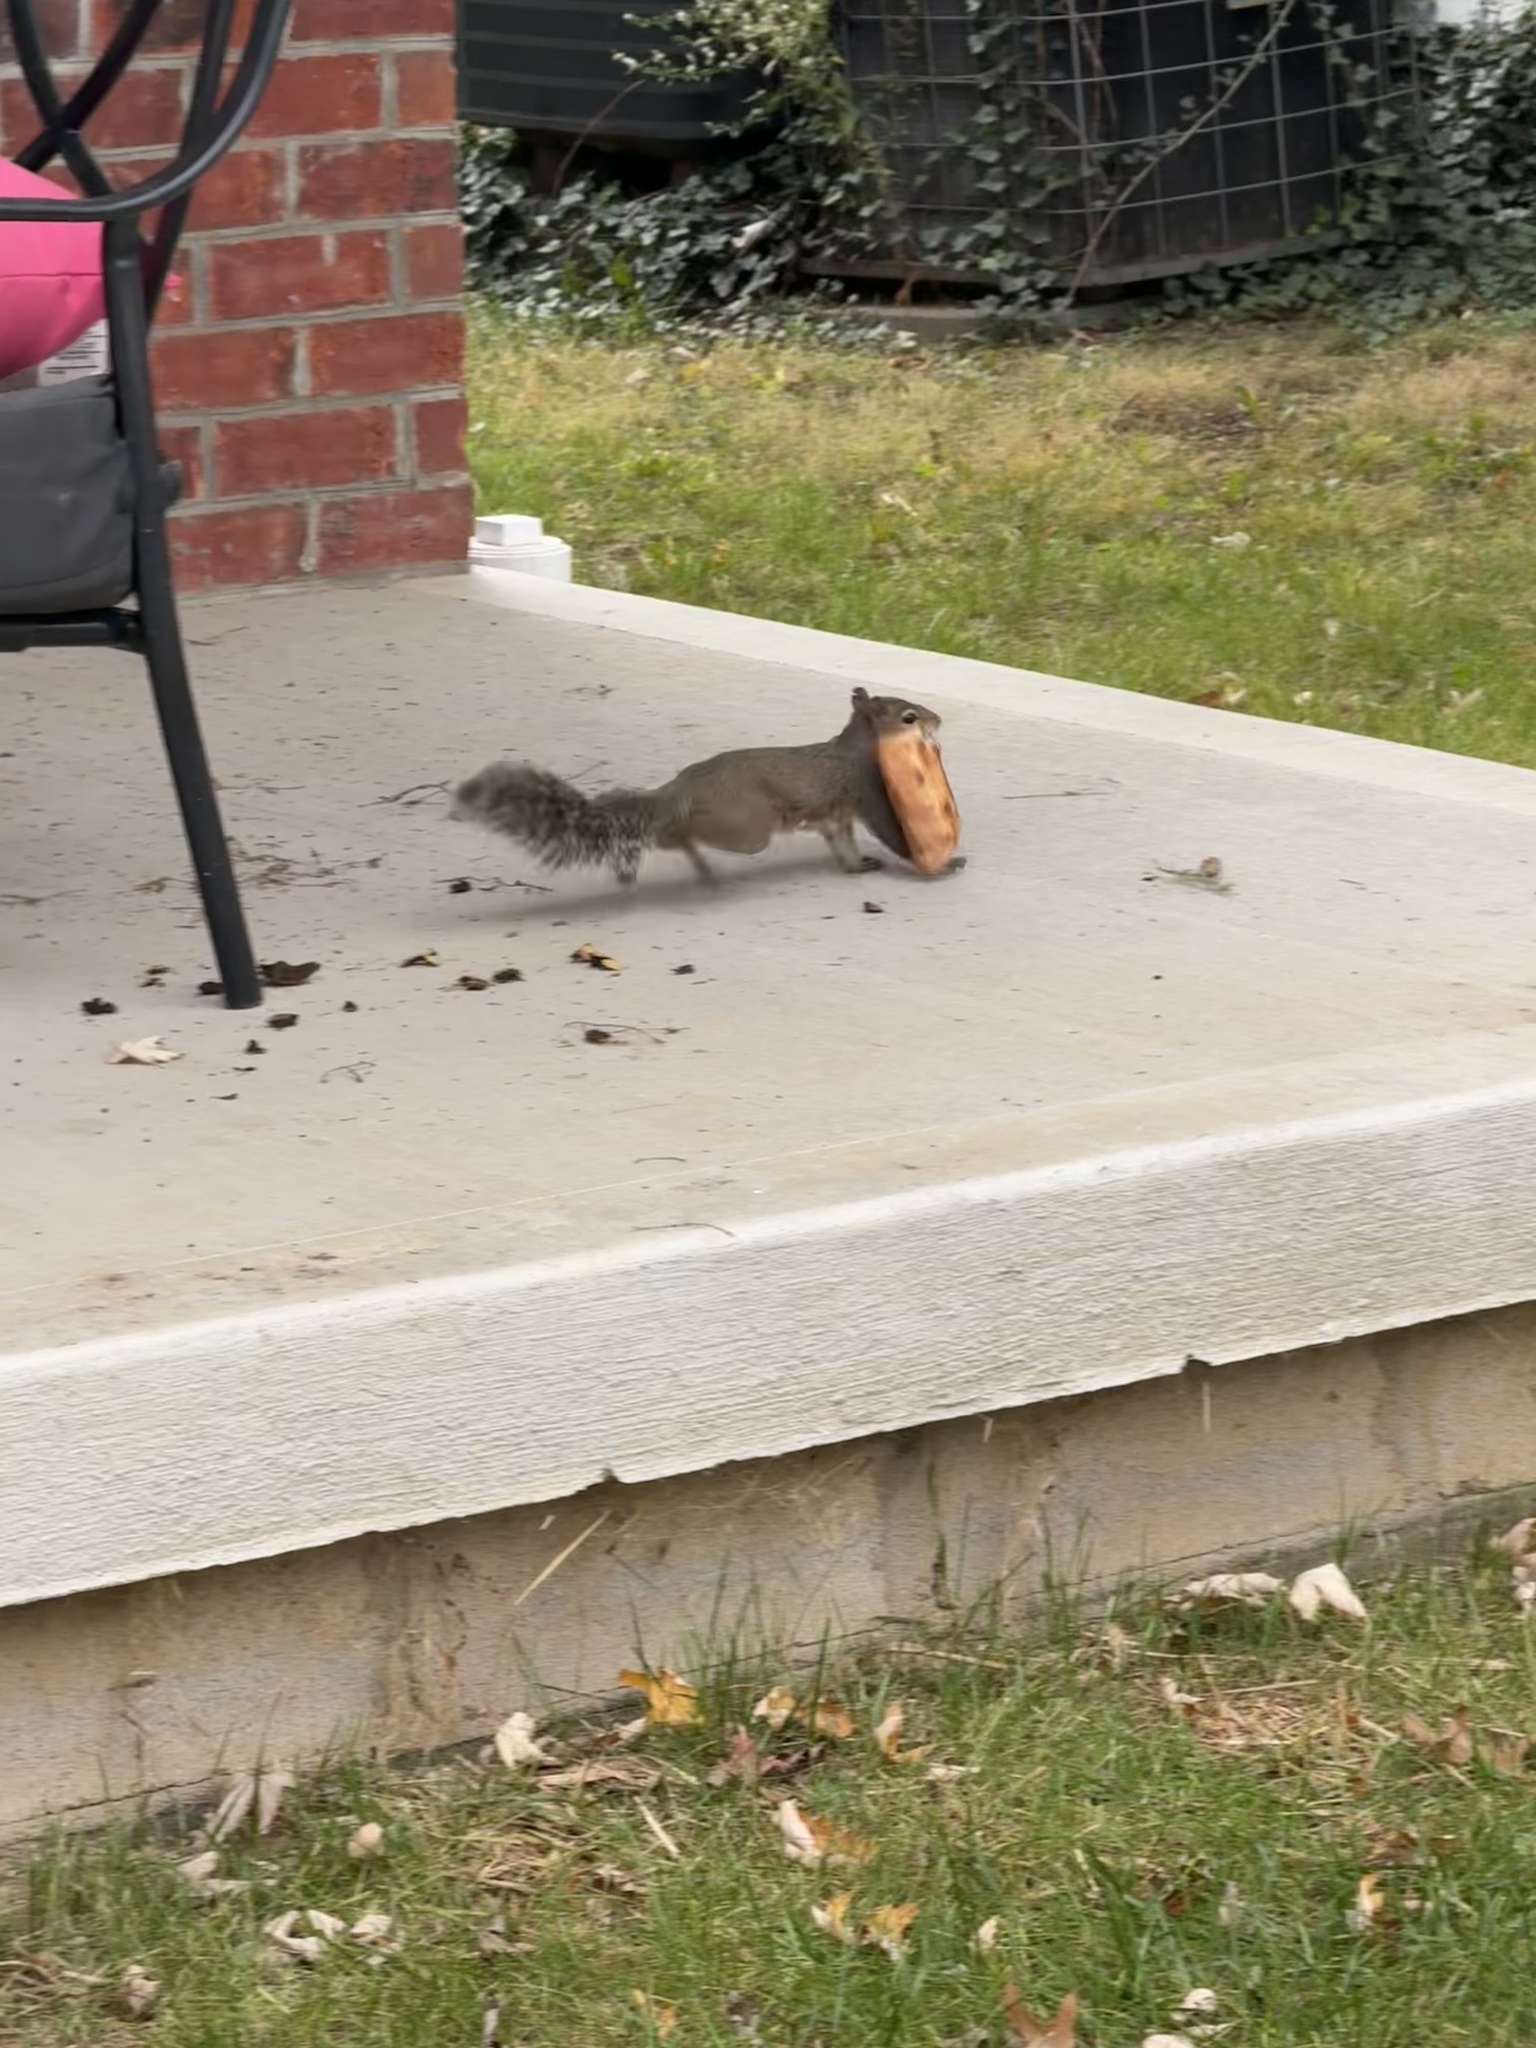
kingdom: Animalia
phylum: Chordata
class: Mammalia
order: Rodentia
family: Sciuridae
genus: Sciurus
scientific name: Sciurus carolinensis
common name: Eastern gray squirrel
